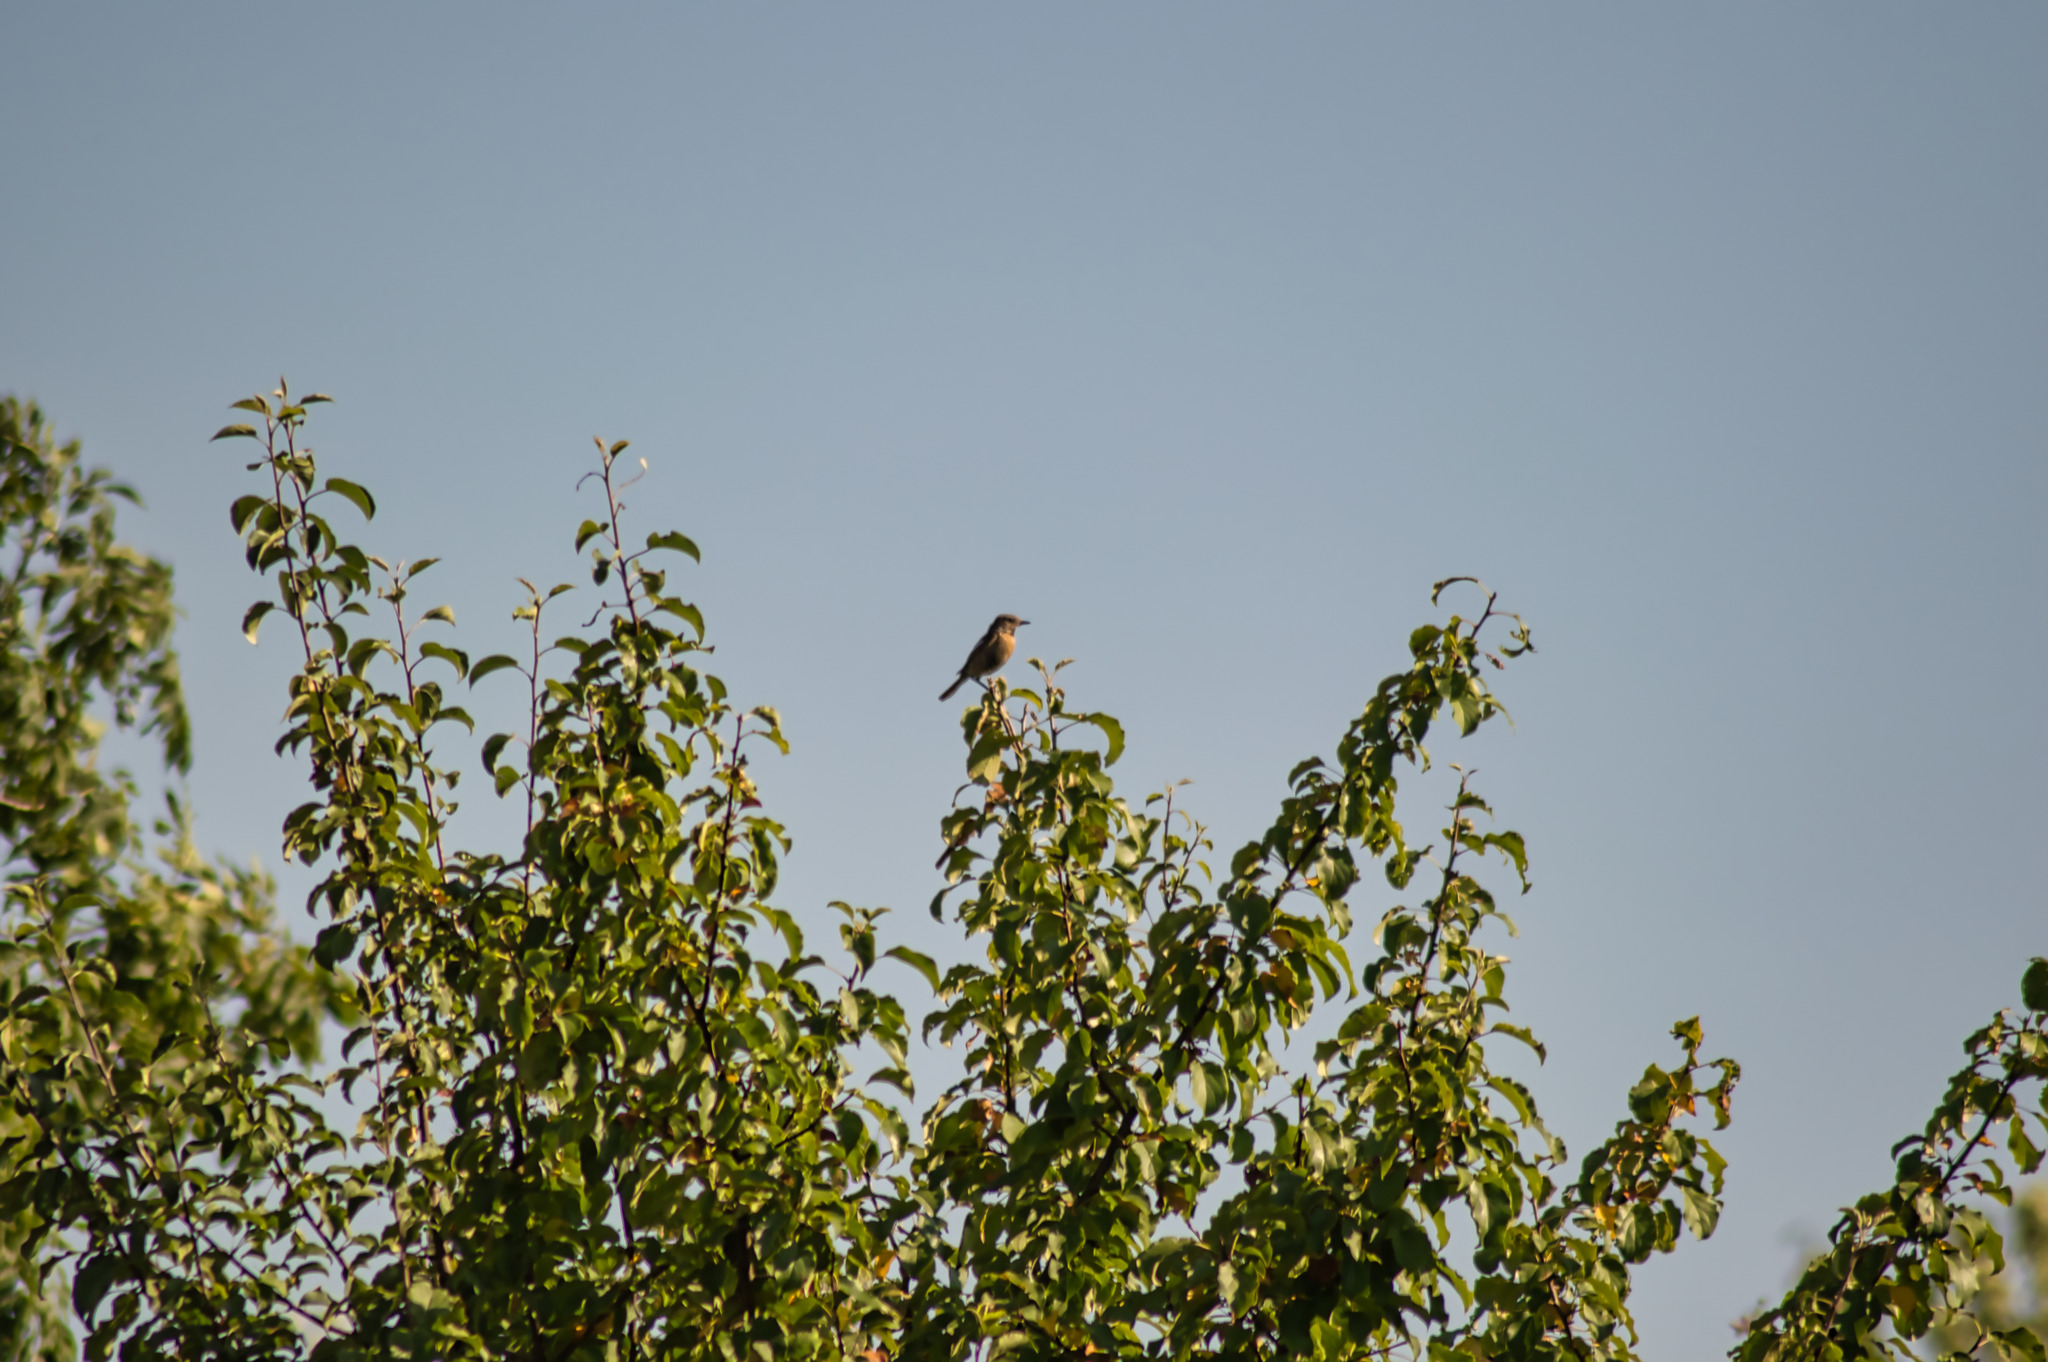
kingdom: Animalia
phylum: Chordata
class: Aves
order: Passeriformes
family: Muscicapidae
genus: Saxicola
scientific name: Saxicola rubicola
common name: European stonechat
